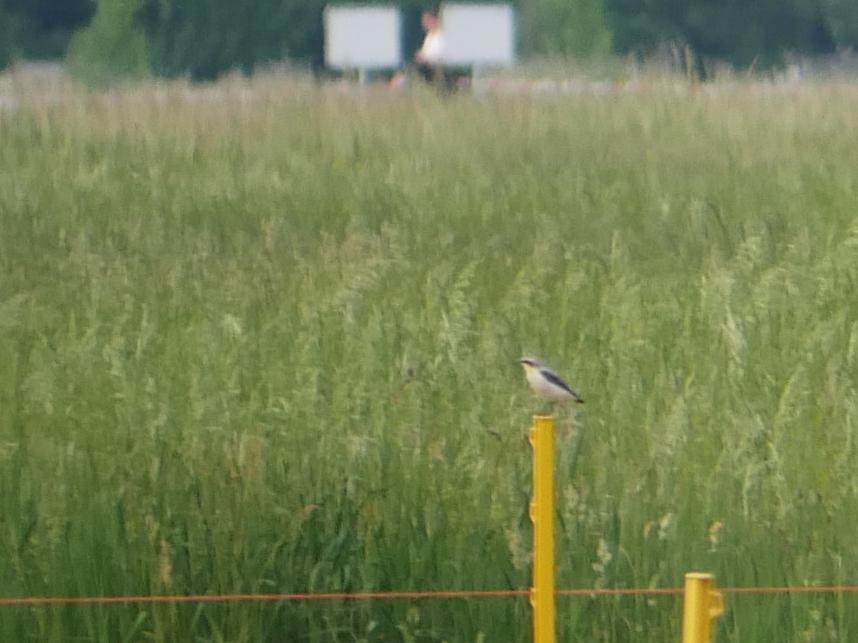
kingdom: Animalia
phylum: Chordata
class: Aves
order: Passeriformes
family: Muscicapidae
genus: Oenanthe
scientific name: Oenanthe oenanthe
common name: Northern wheatear
